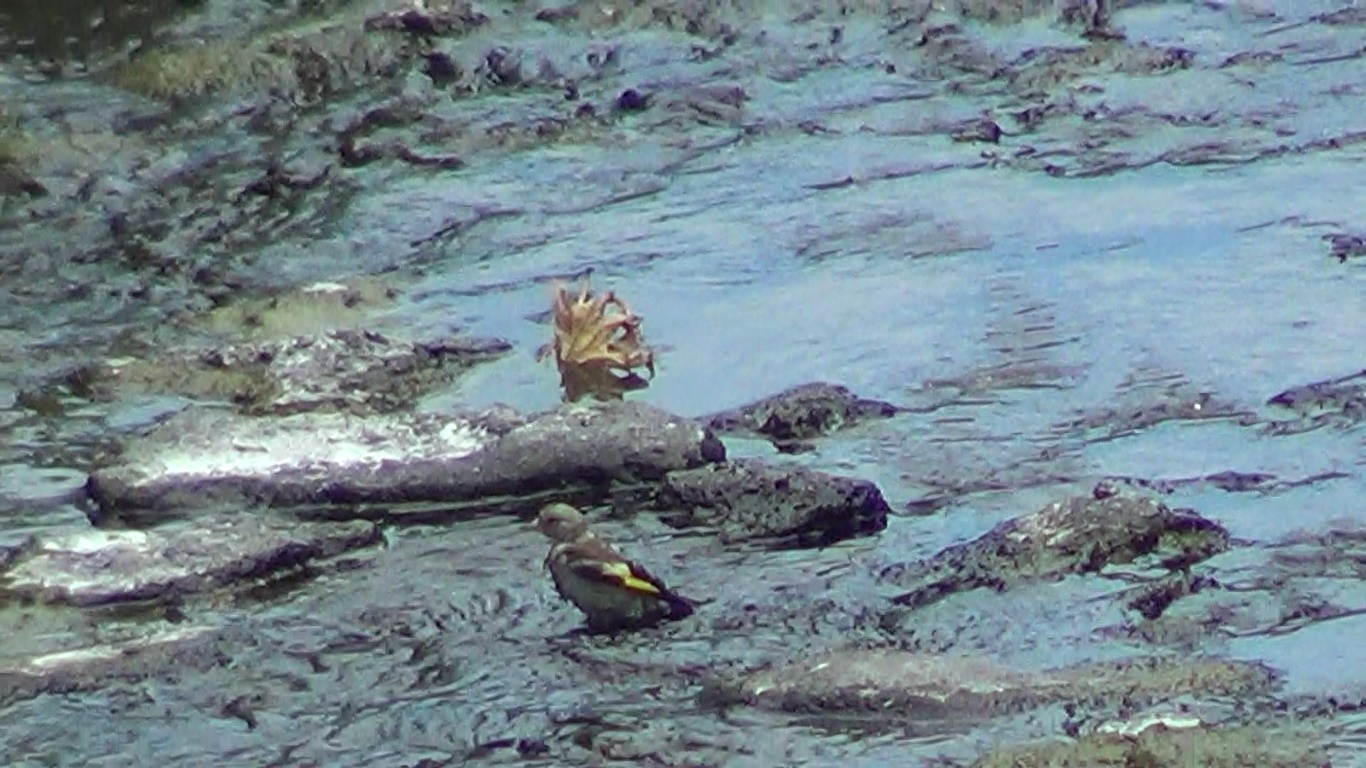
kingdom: Animalia
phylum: Chordata
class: Aves
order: Passeriformes
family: Fringillidae
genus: Carduelis
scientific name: Carduelis carduelis
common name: European goldfinch
